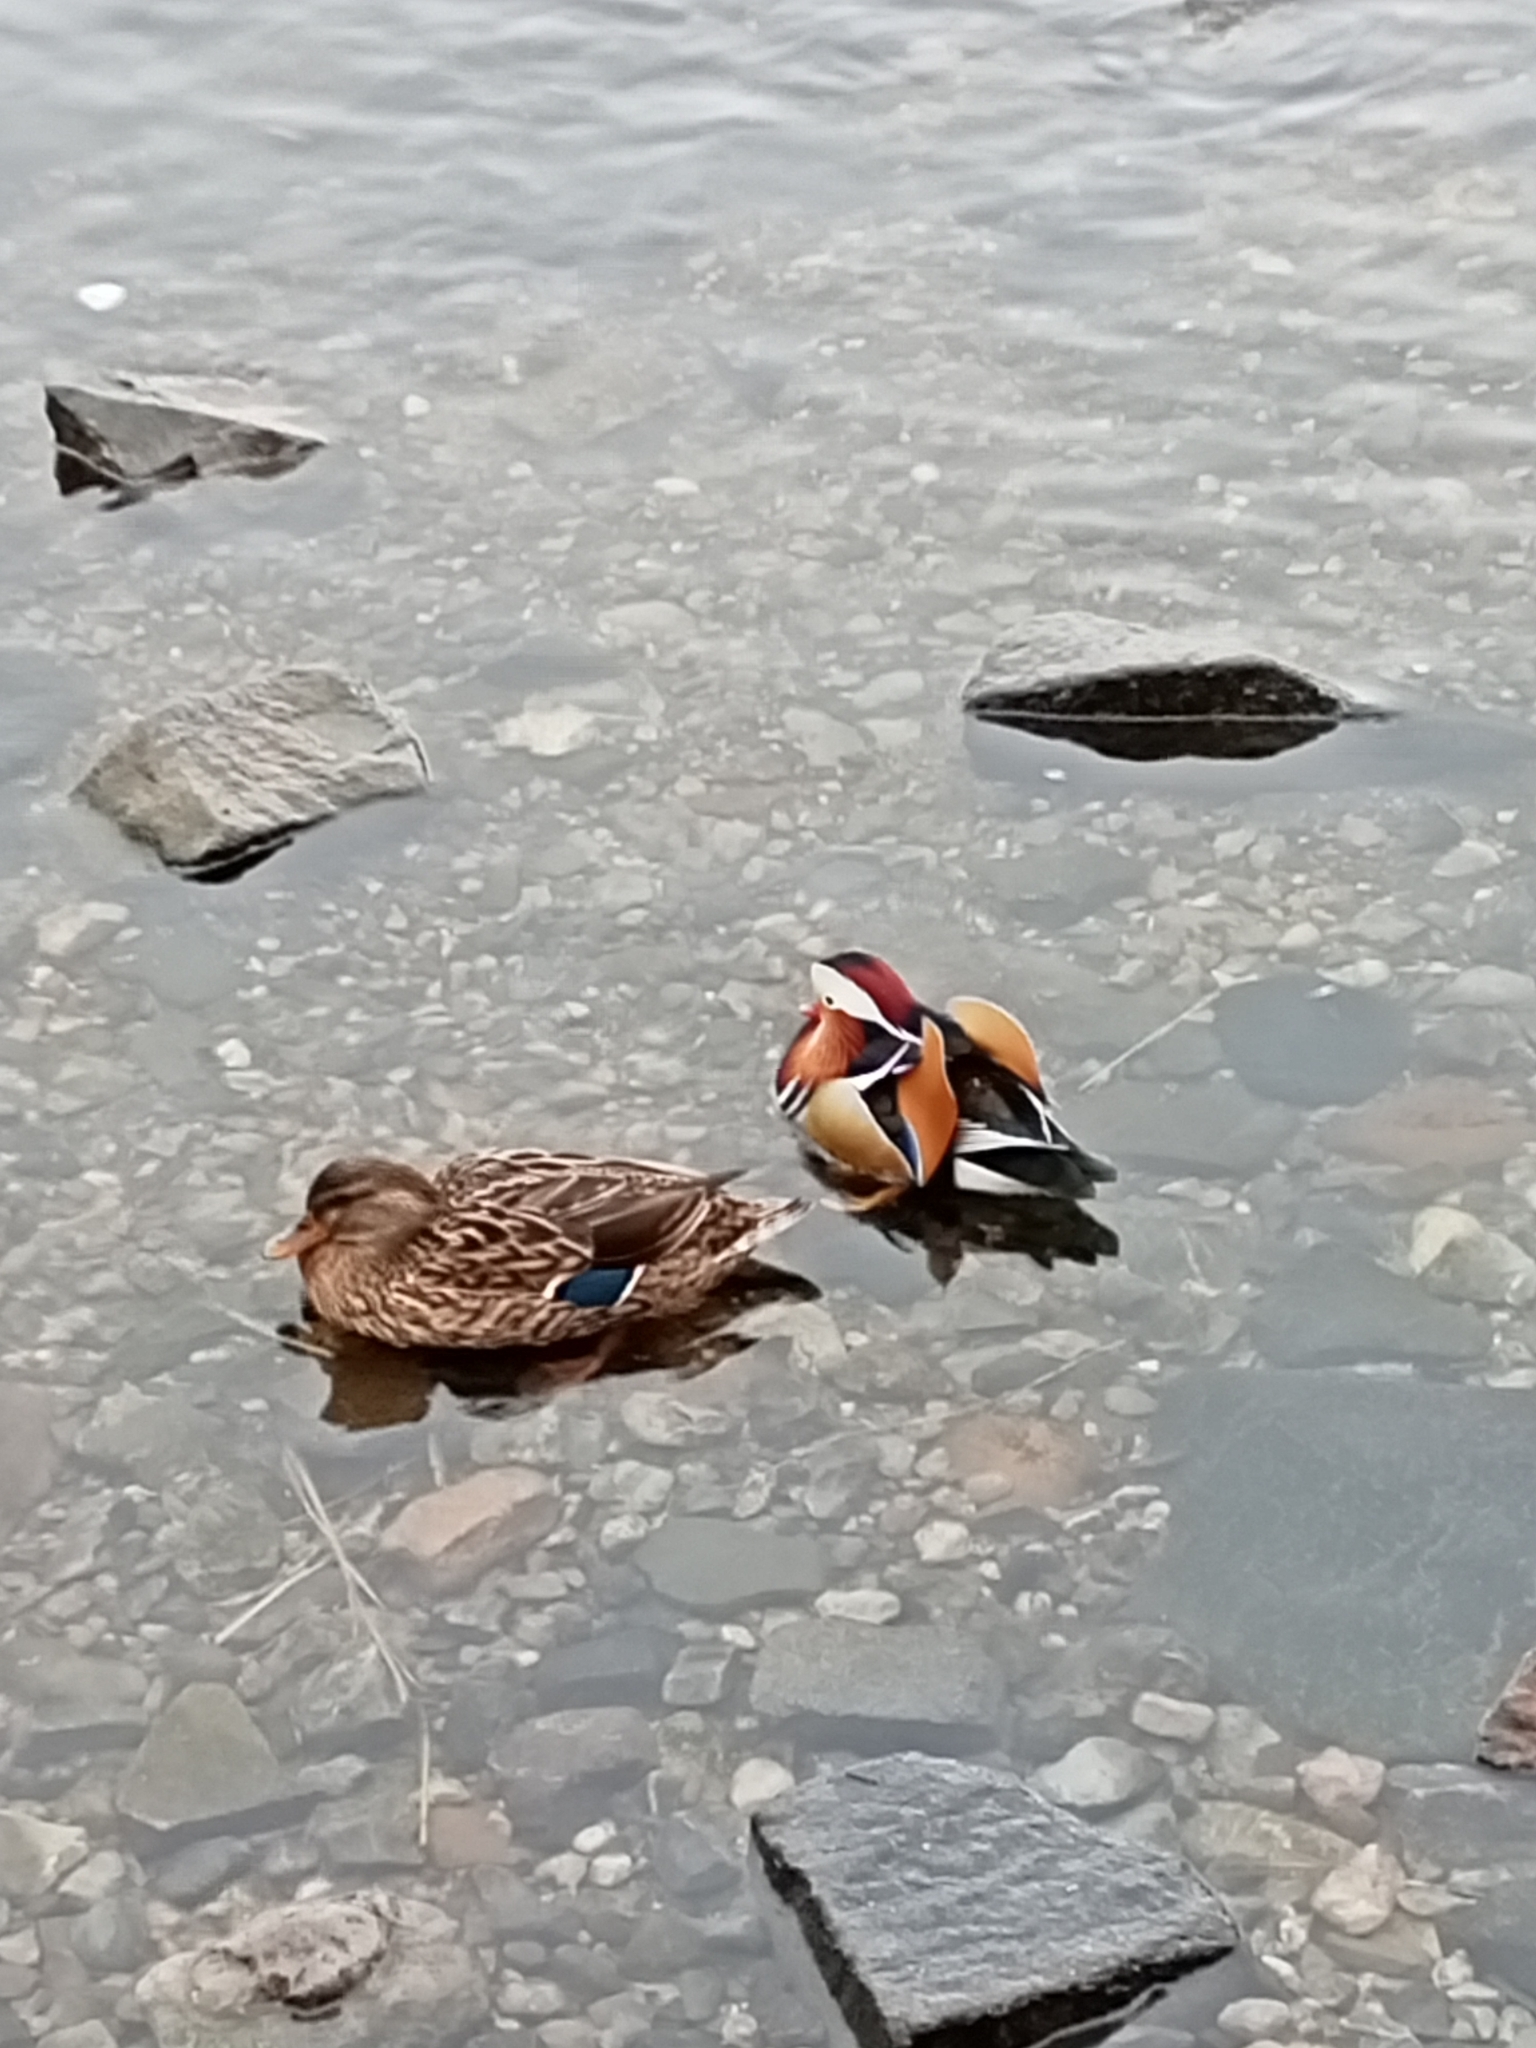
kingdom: Animalia
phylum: Chordata
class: Aves
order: Anseriformes
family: Anatidae
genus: Aix
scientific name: Aix galericulata
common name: Mandarin duck
